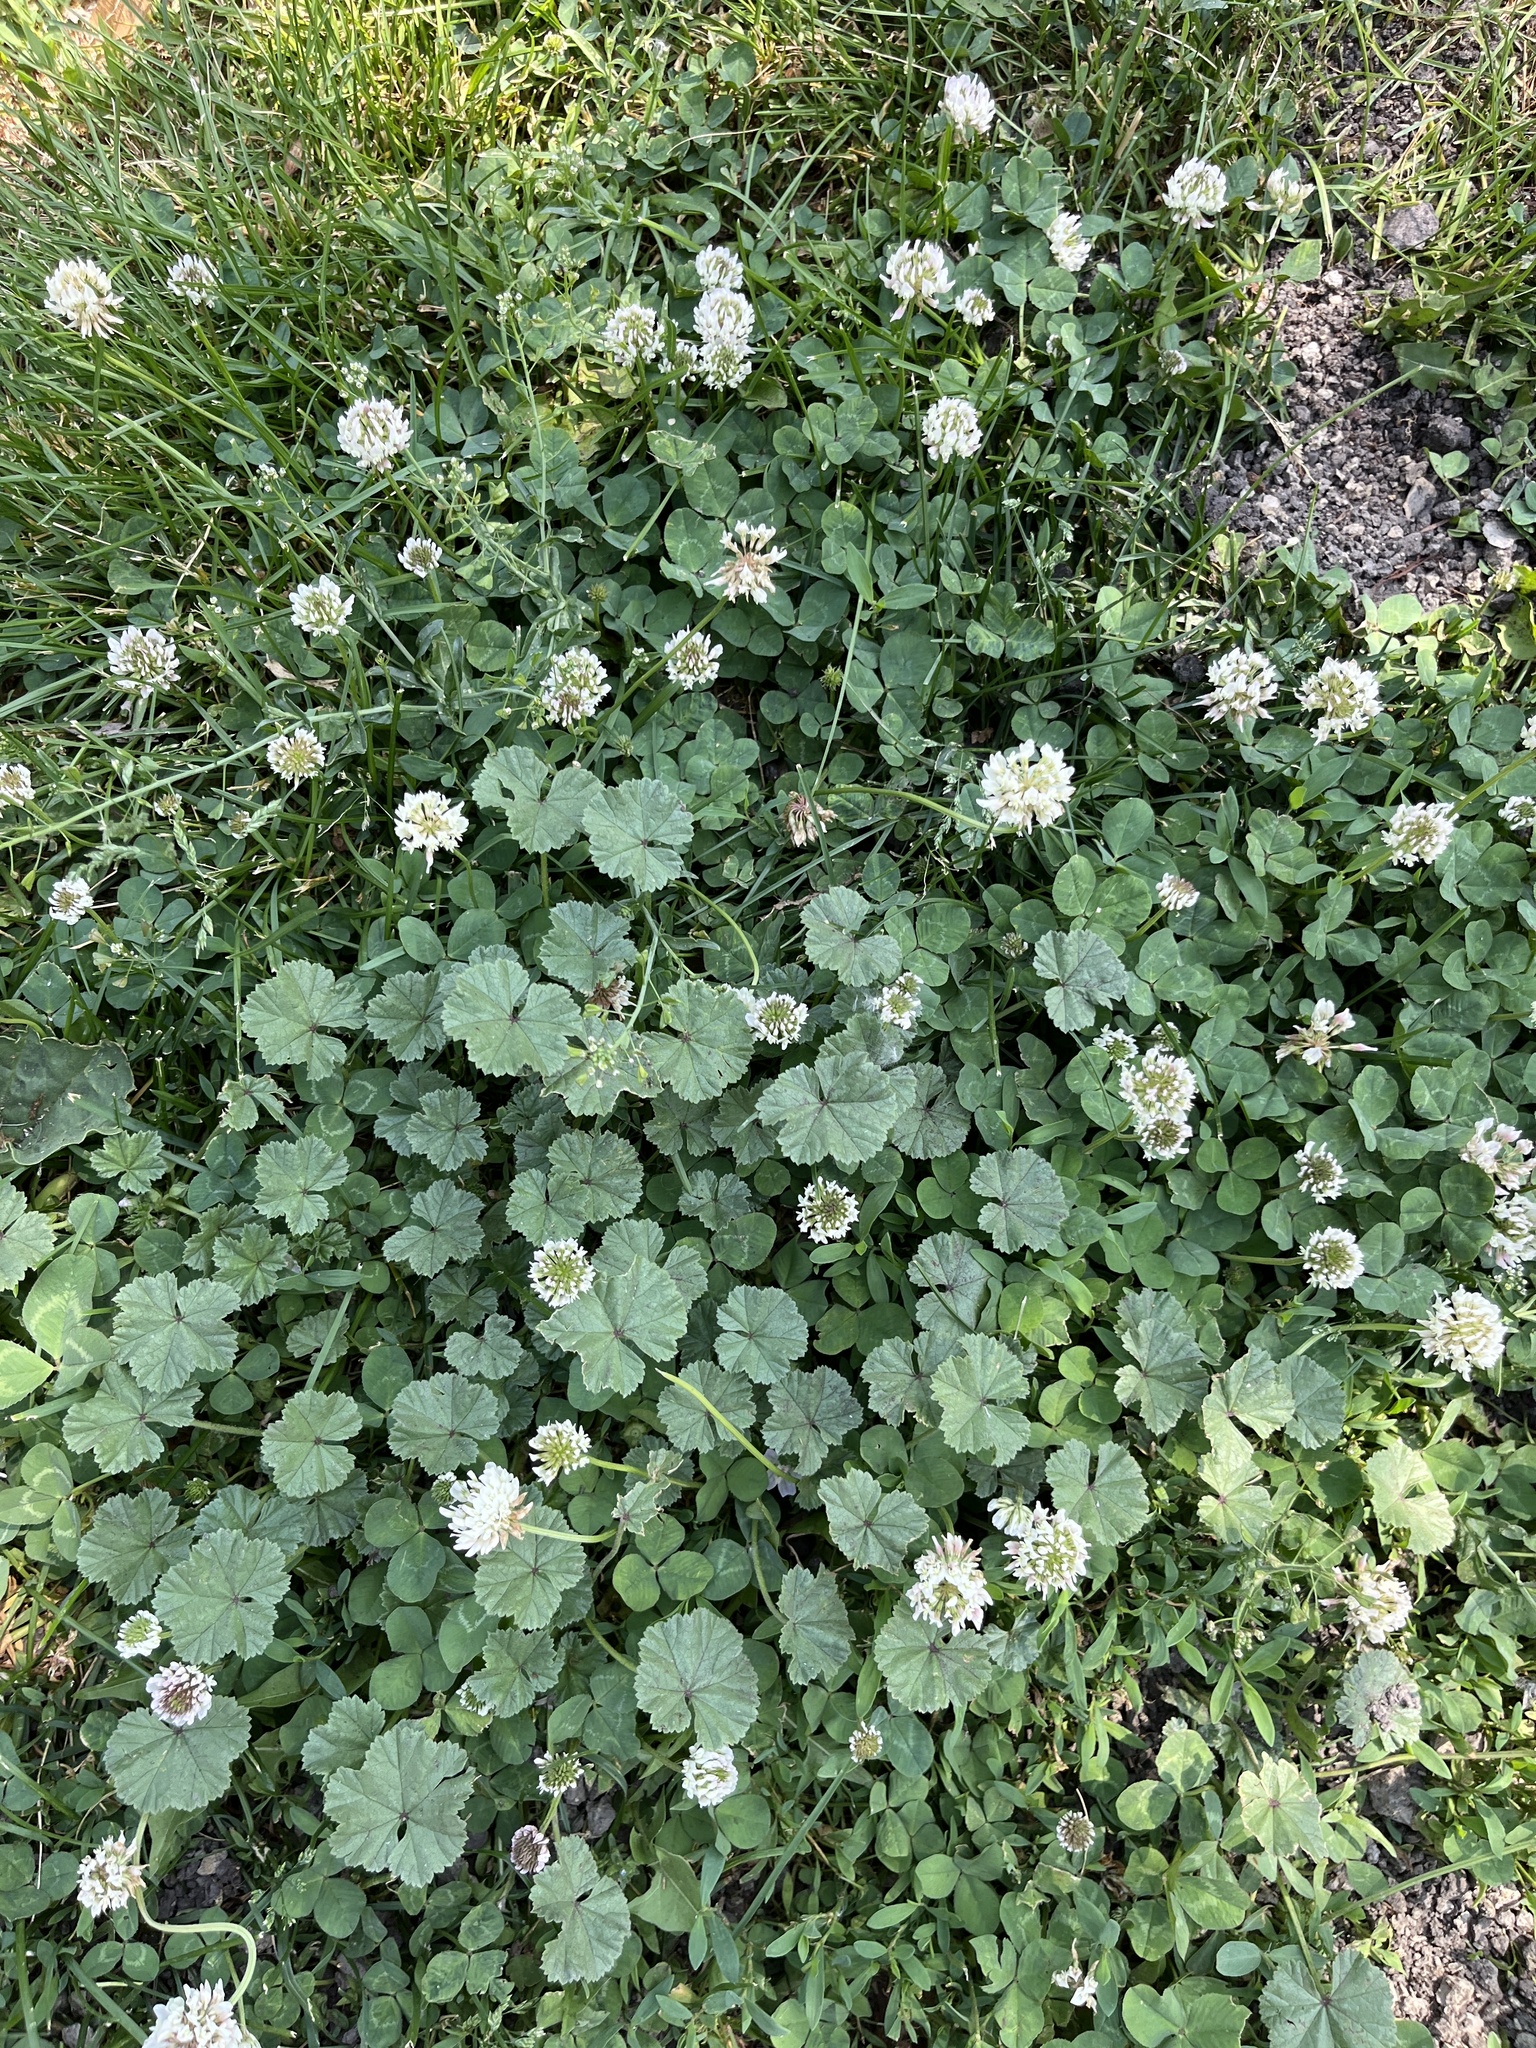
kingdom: Plantae
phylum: Tracheophyta
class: Magnoliopsida
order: Fabales
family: Fabaceae
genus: Trifolium
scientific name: Trifolium repens
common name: White clover
